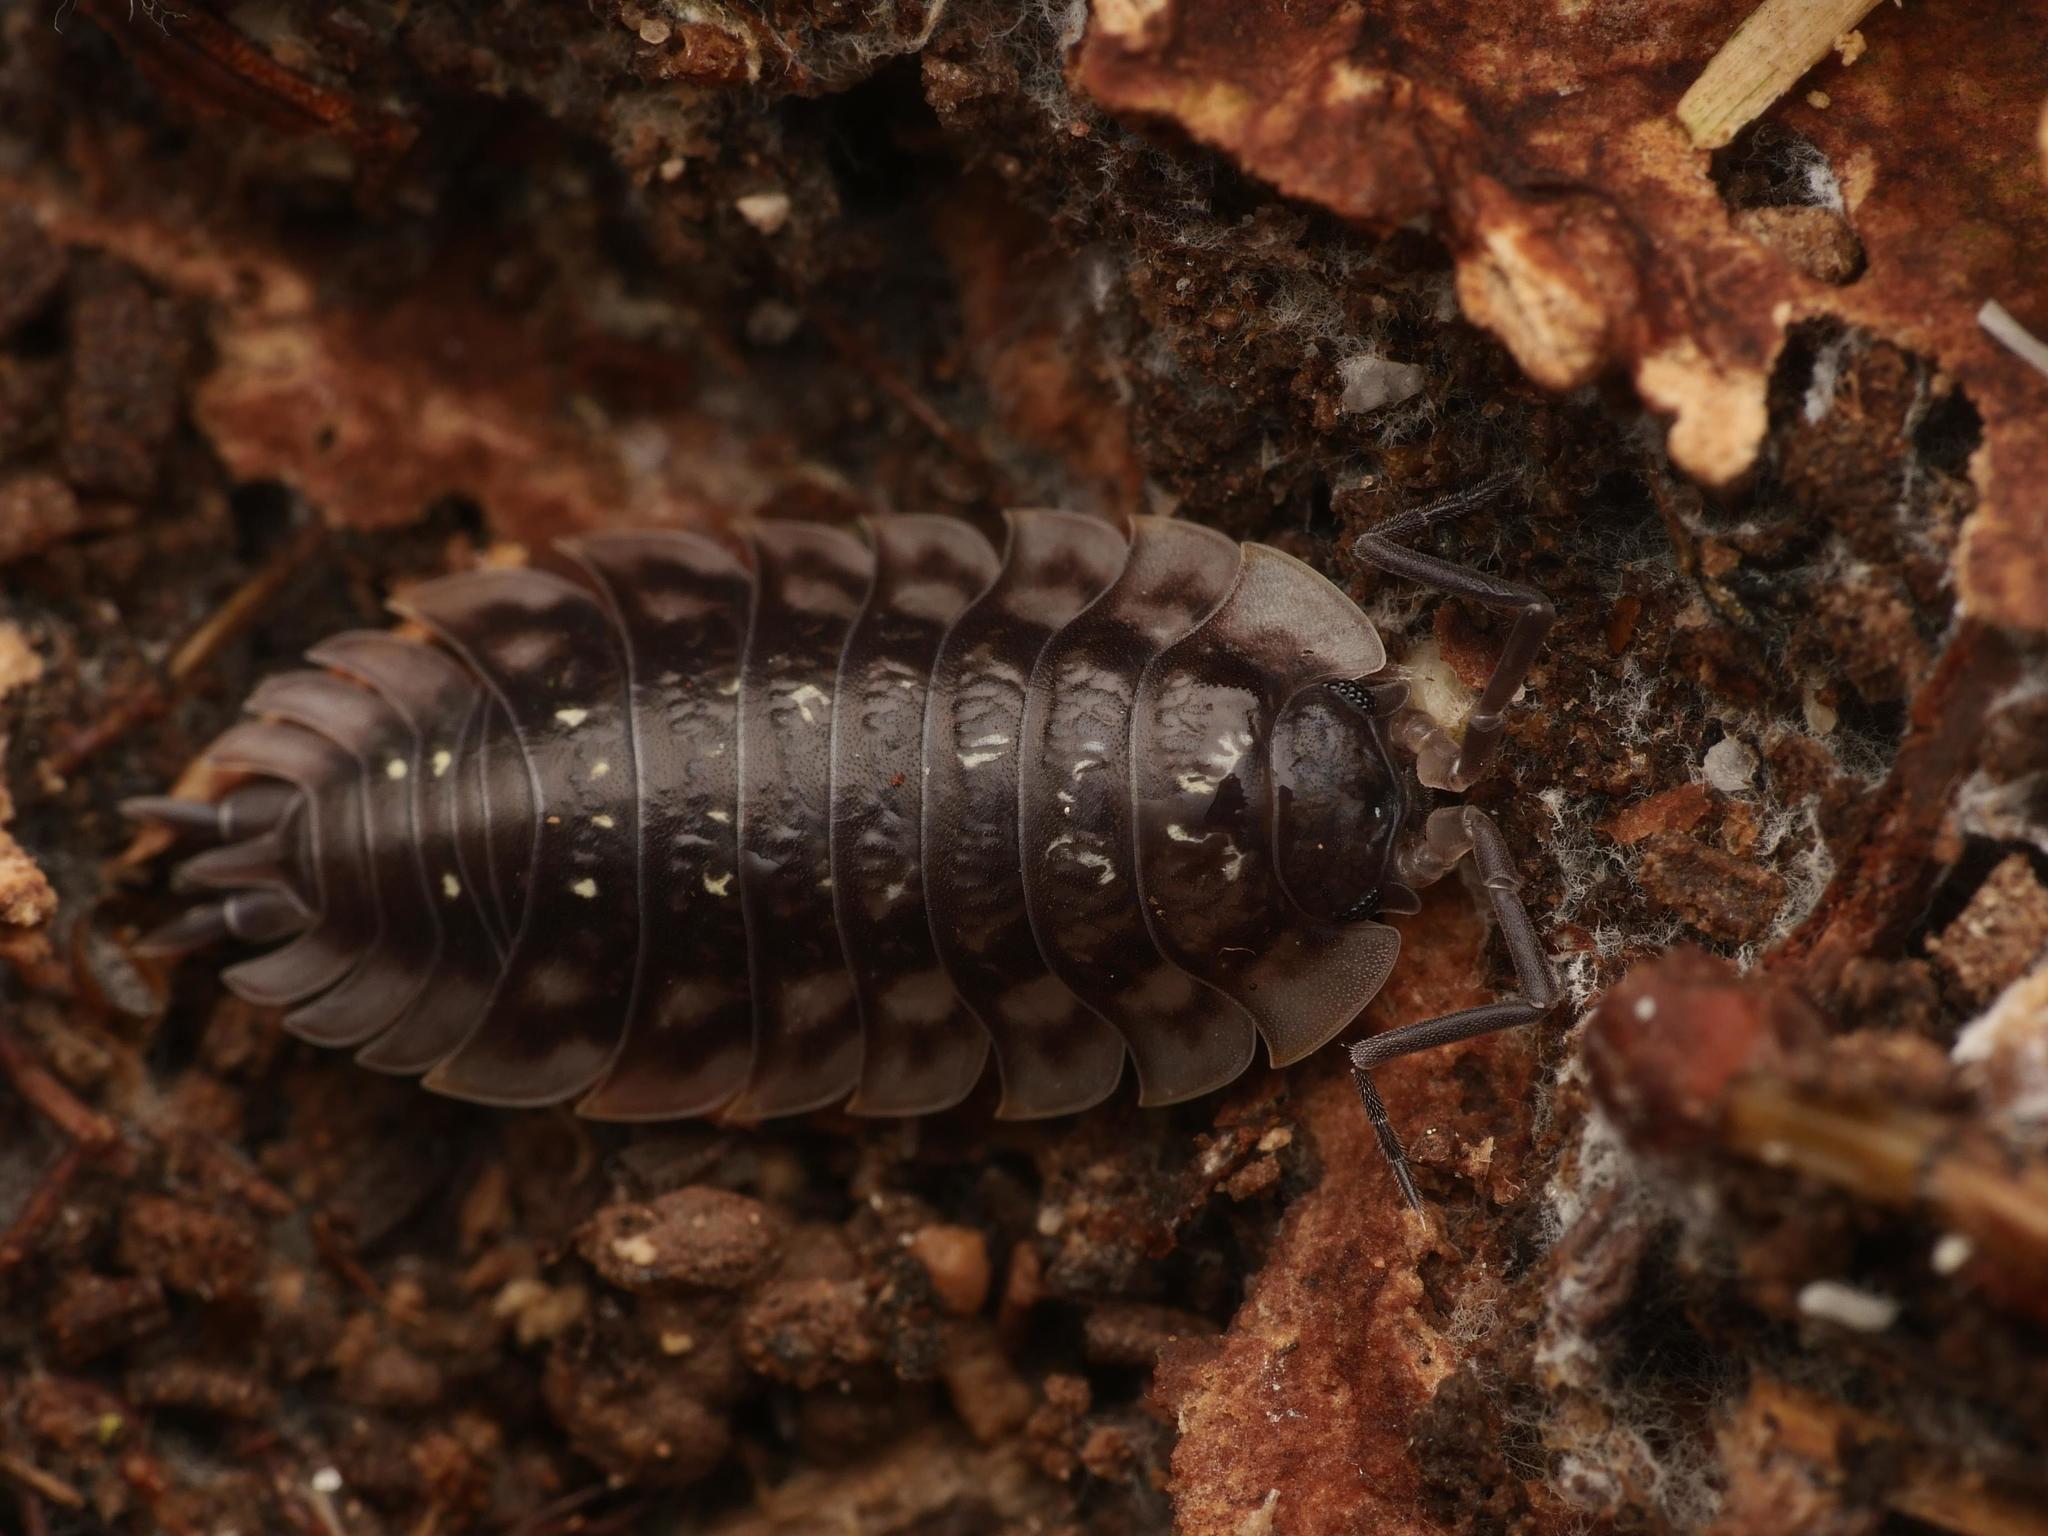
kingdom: Animalia
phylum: Arthropoda
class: Malacostraca
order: Isopoda
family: Oniscidae
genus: Oniscus
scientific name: Oniscus asellus
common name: Common shiny woodlouse
